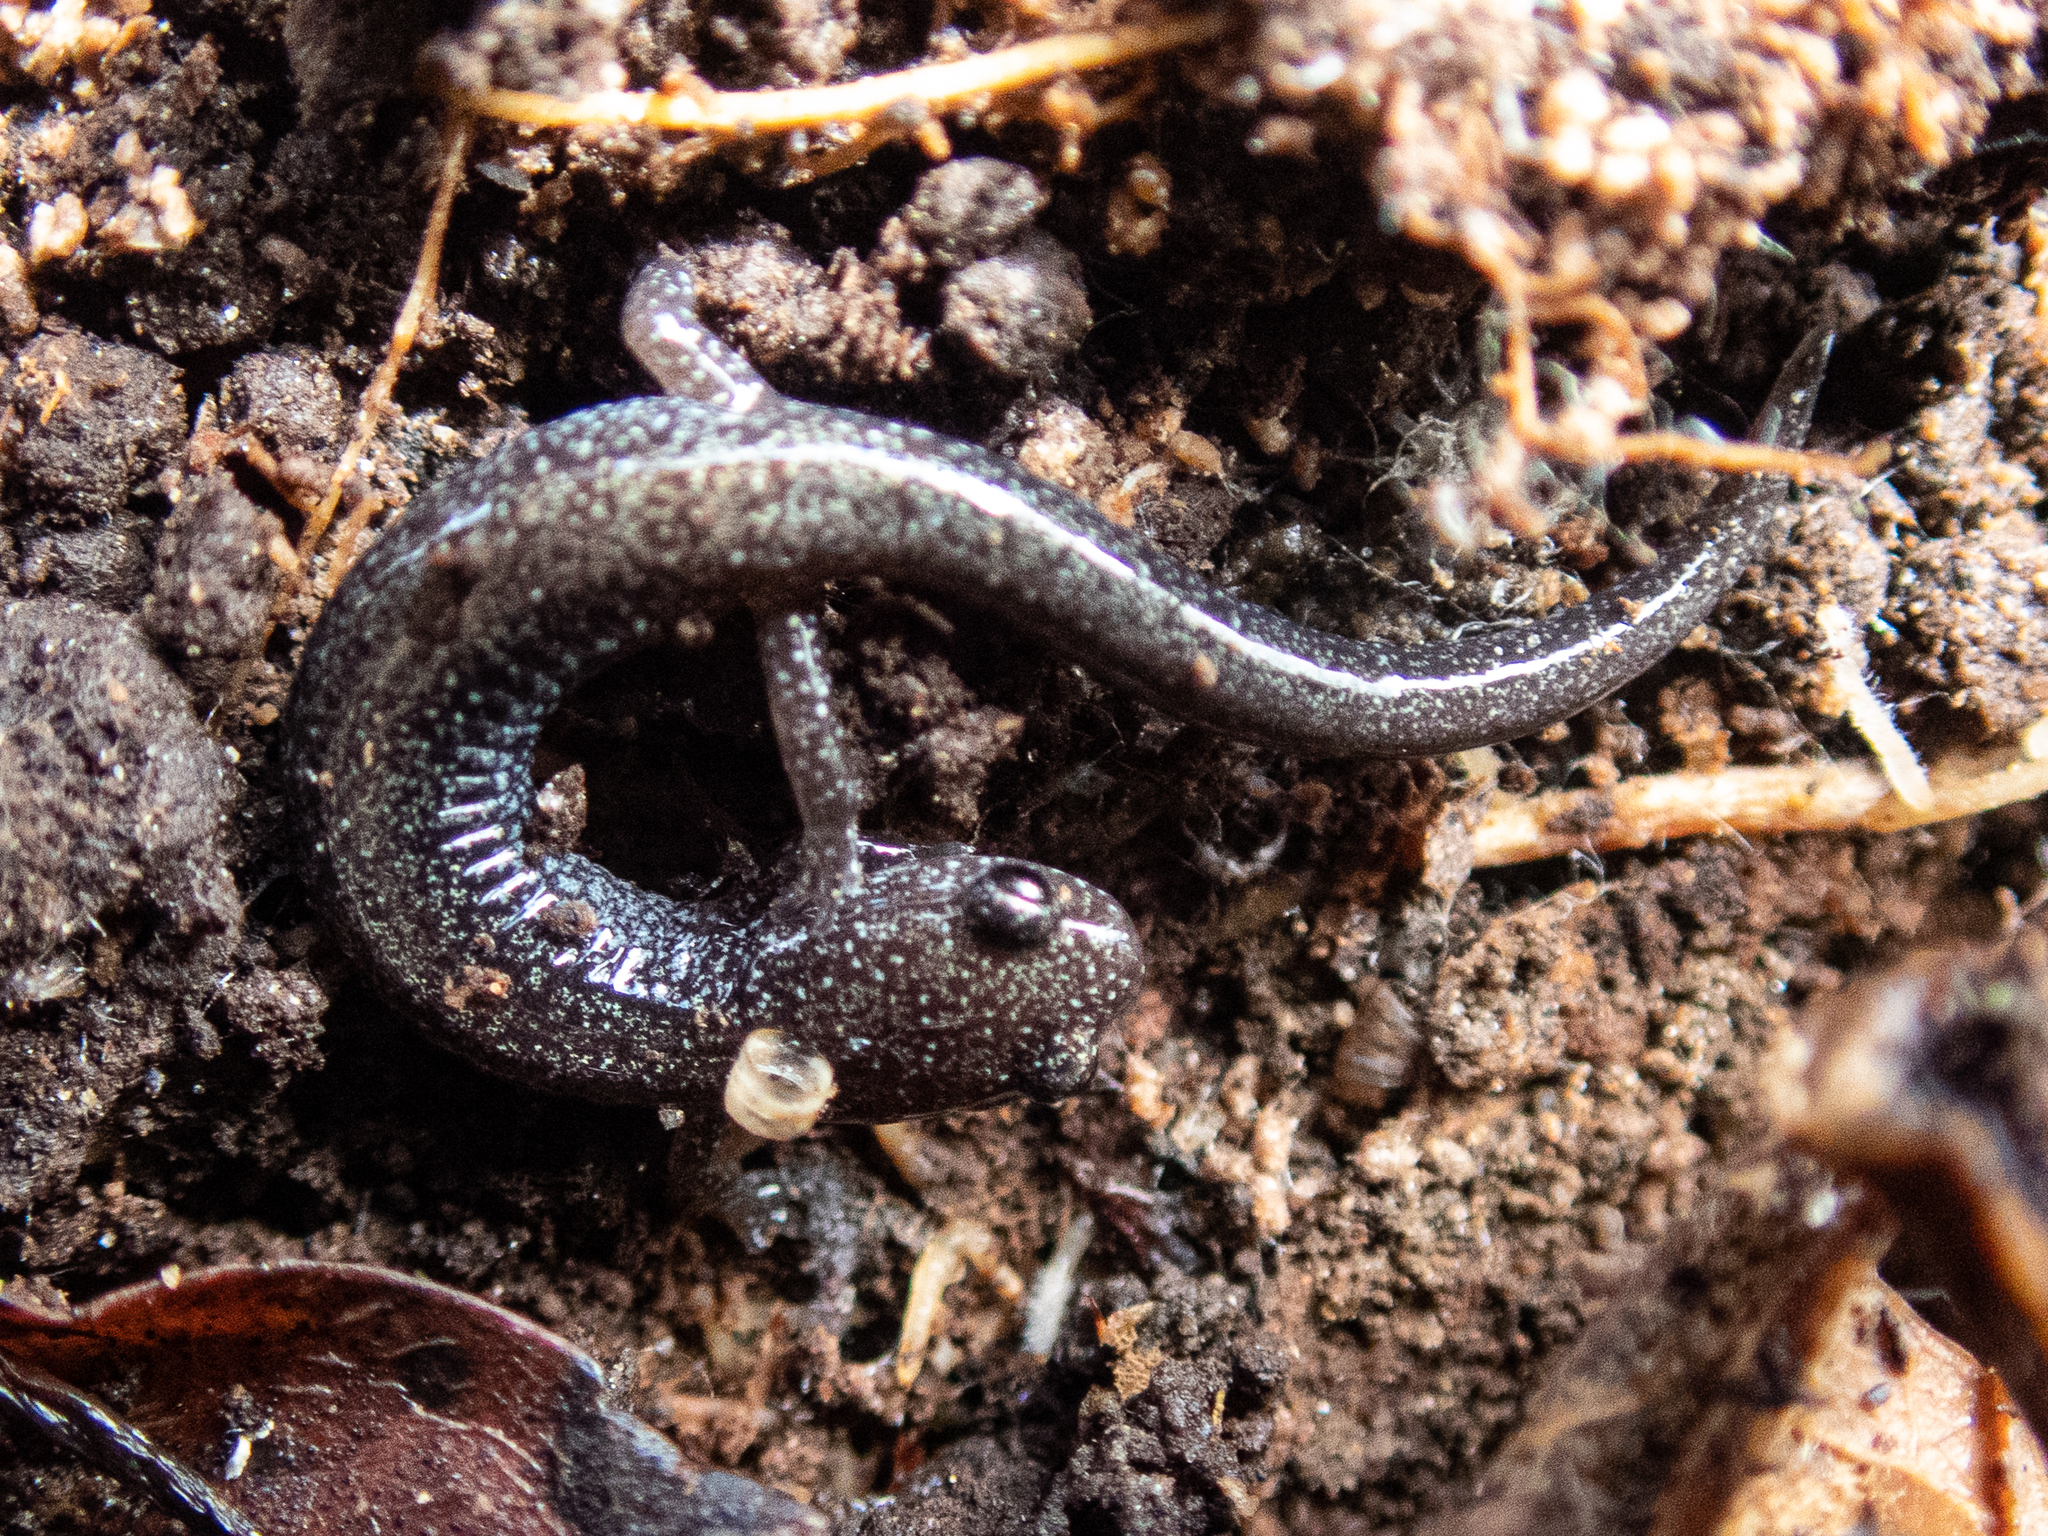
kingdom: Animalia
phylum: Chordata
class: Amphibia
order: Caudata
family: Plethodontidae
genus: Plethodon
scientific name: Plethodon cinereus
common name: Redback salamander
